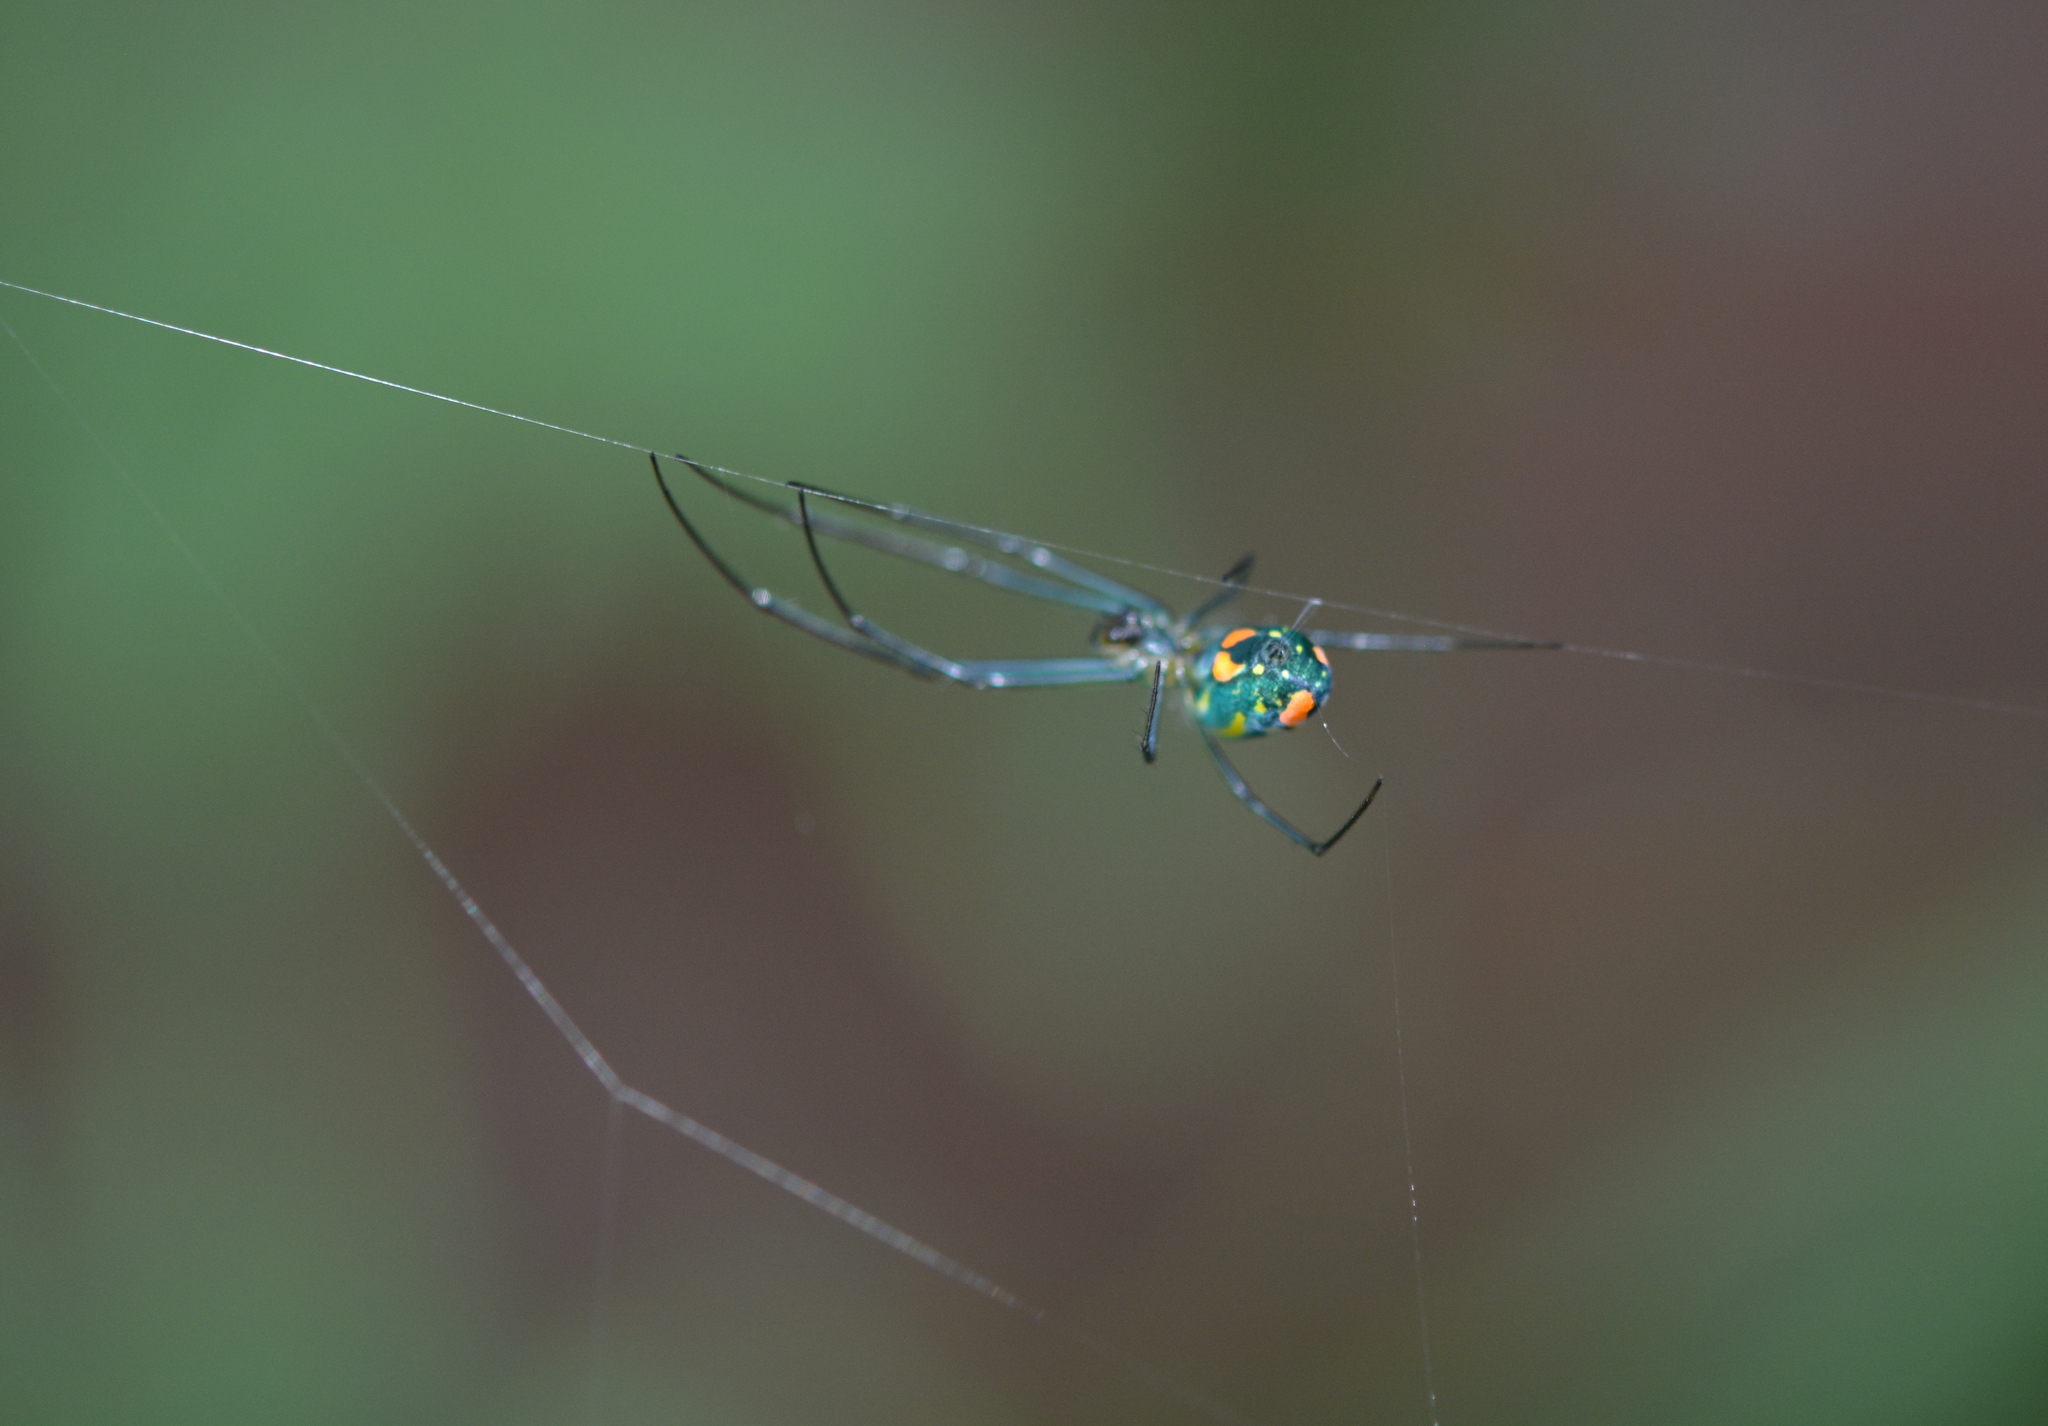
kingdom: Animalia
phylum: Arthropoda
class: Arachnida
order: Araneae
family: Tetragnathidae
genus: Leucauge
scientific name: Leucauge argyrobapta
